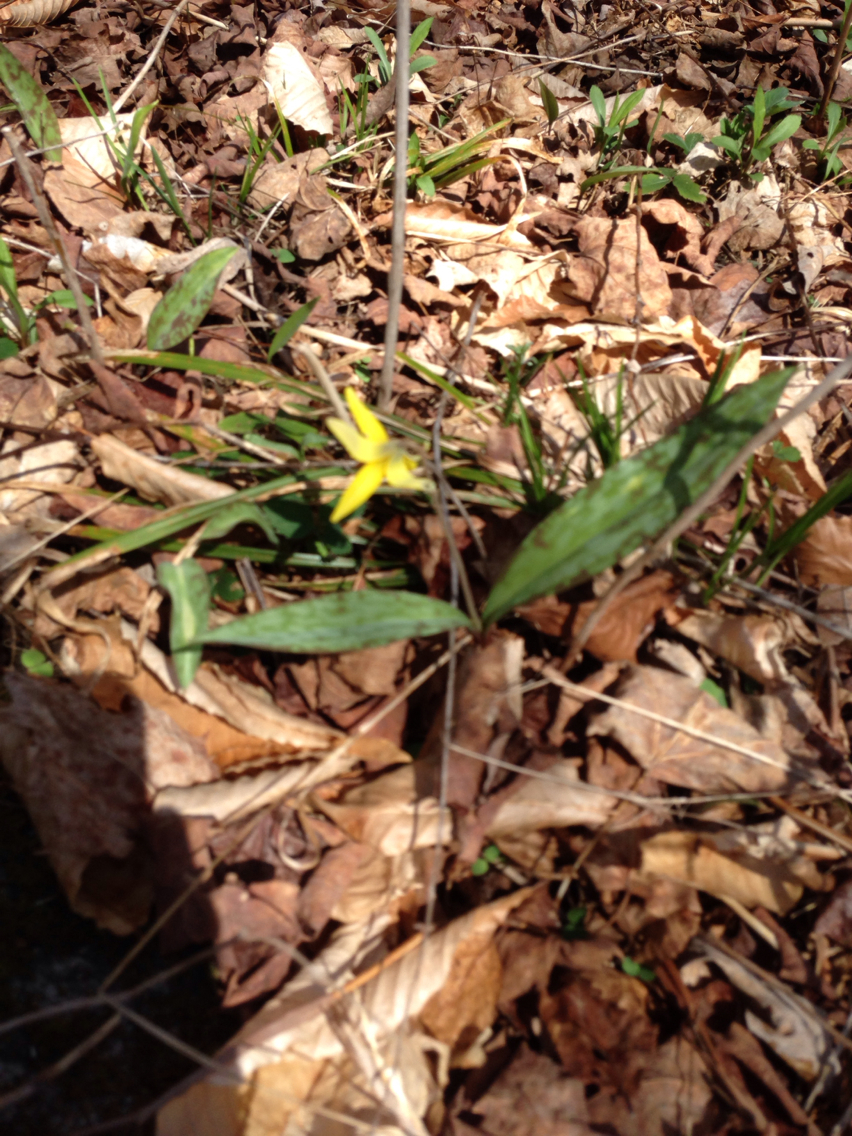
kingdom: Plantae
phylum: Tracheophyta
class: Liliopsida
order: Liliales
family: Liliaceae
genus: Erythronium
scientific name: Erythronium americanum
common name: Yellow adder's-tongue
